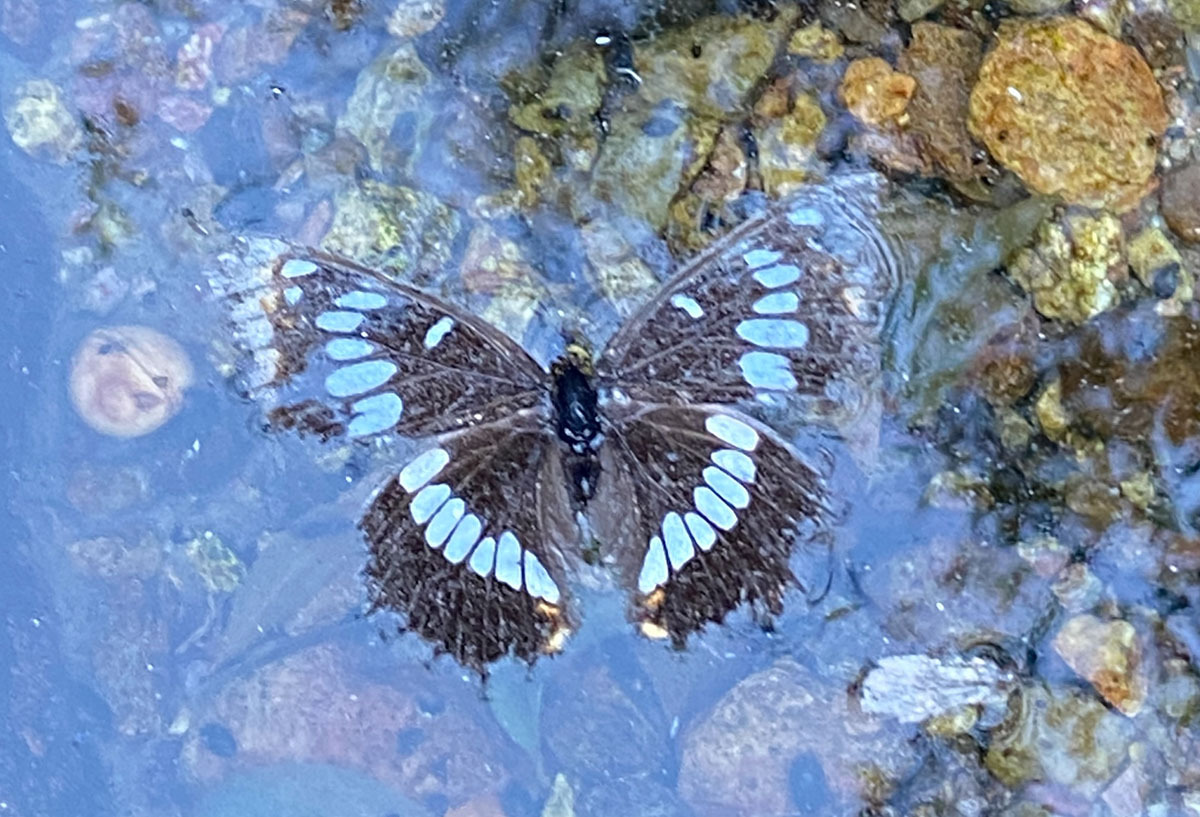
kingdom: Animalia
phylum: Arthropoda
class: Insecta
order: Lepidoptera
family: Nymphalidae
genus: Limenitis
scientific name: Limenitis lorquini
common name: Lorquin's admiral
